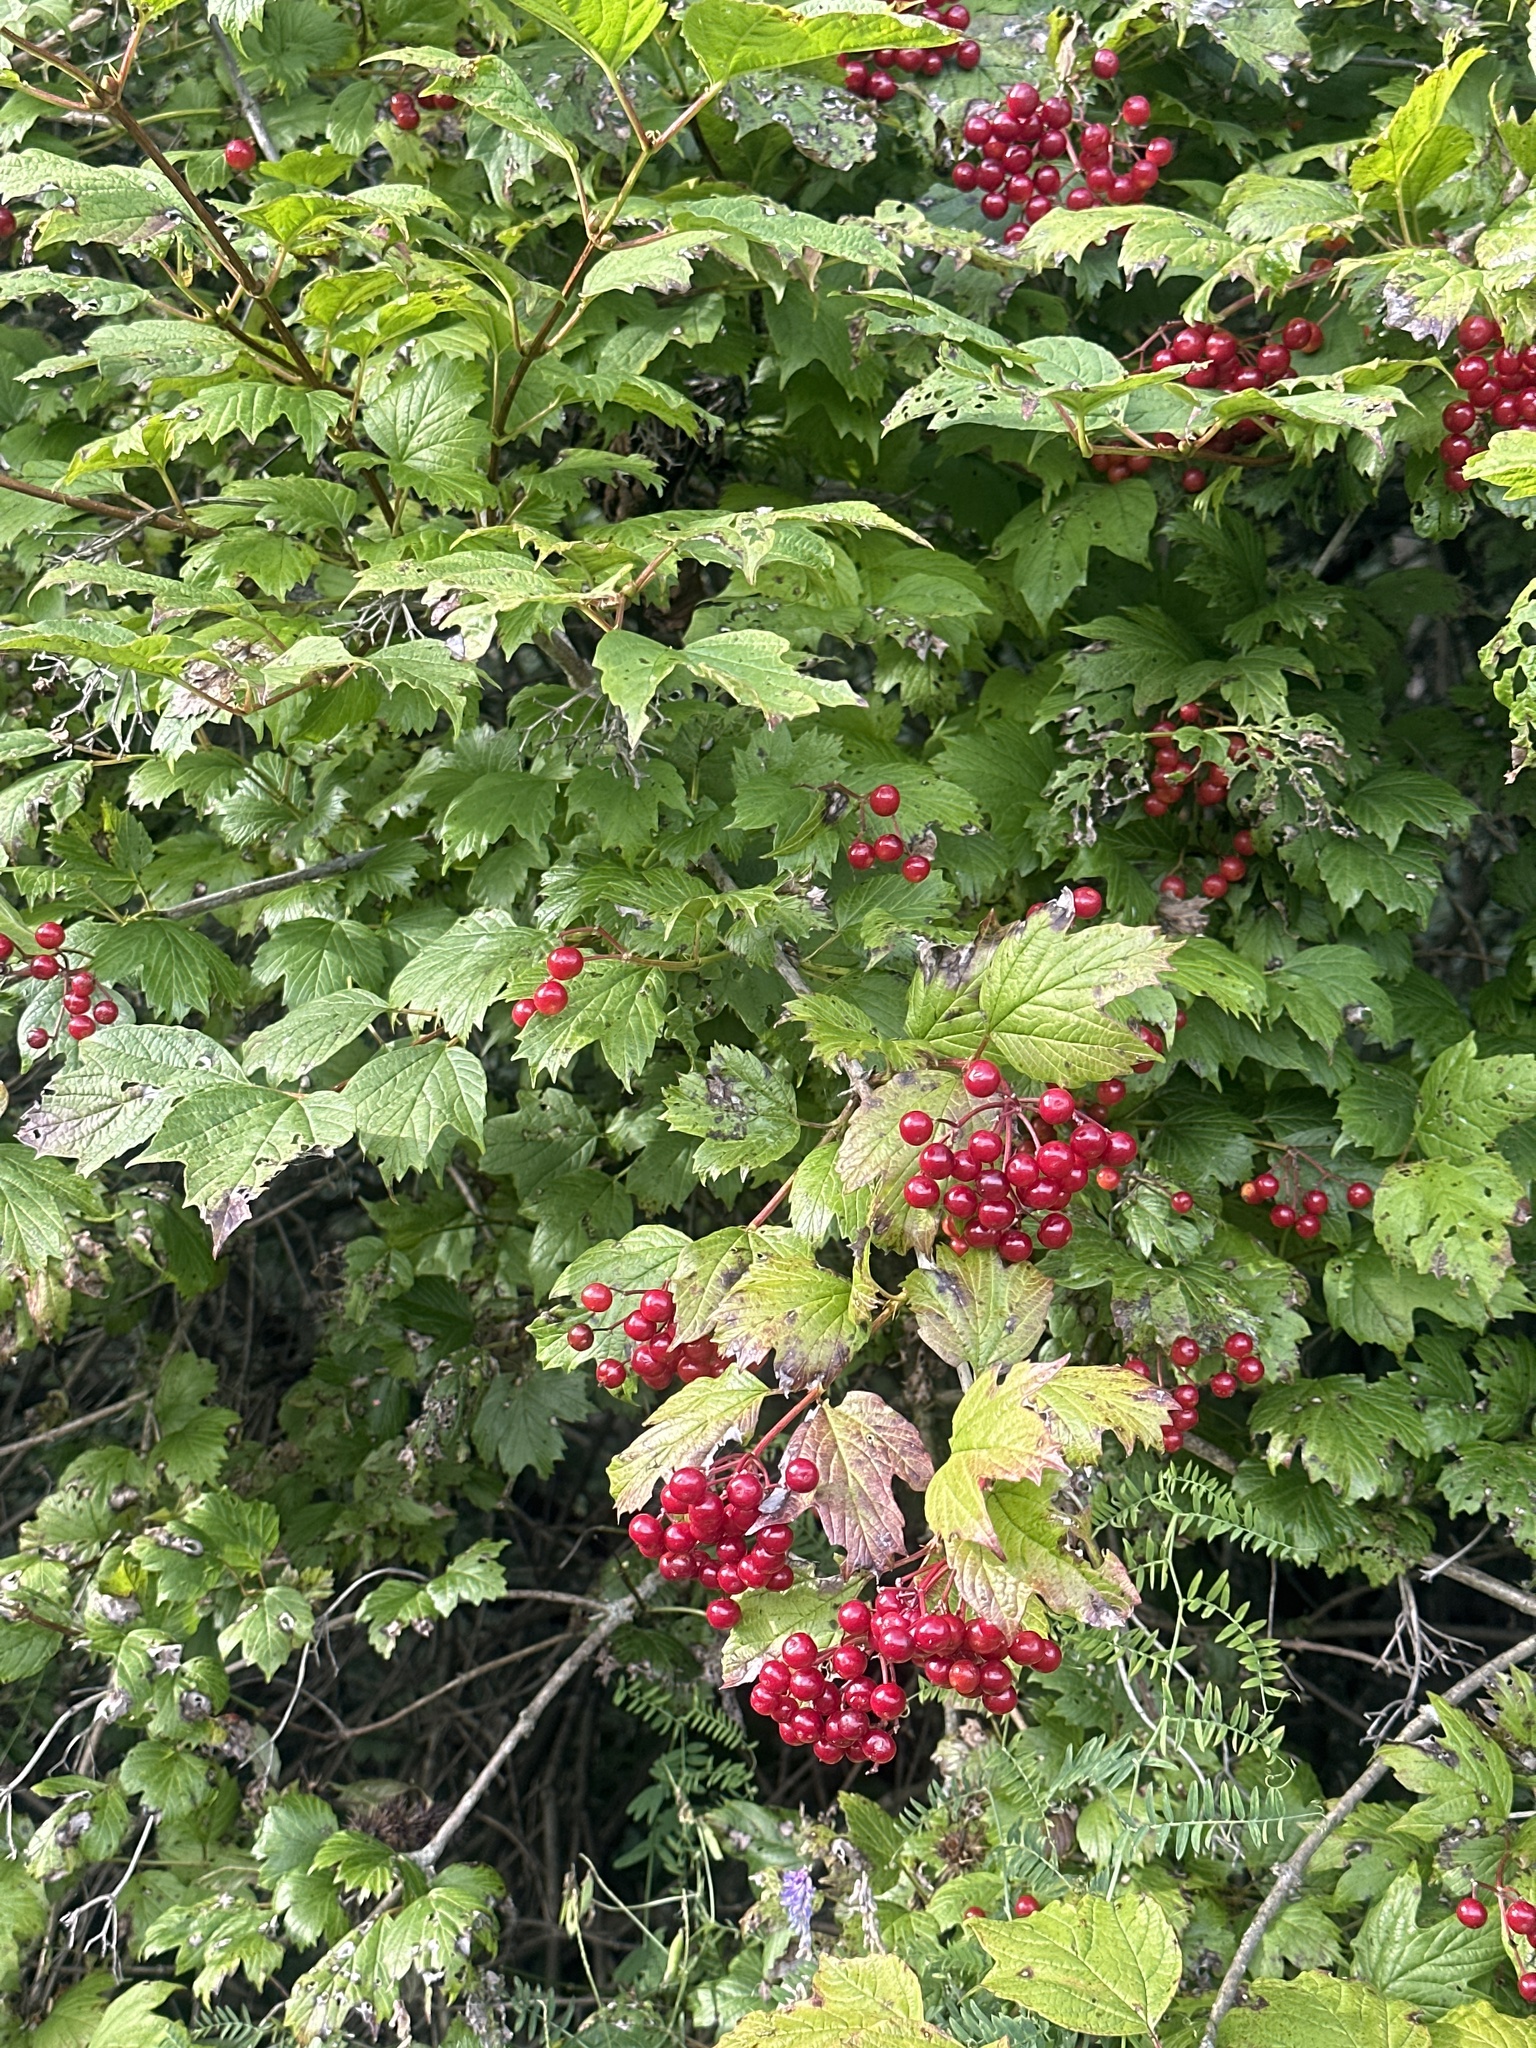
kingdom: Plantae
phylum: Tracheophyta
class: Magnoliopsida
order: Dipsacales
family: Viburnaceae
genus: Viburnum
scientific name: Viburnum opulus
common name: Guelder-rose
